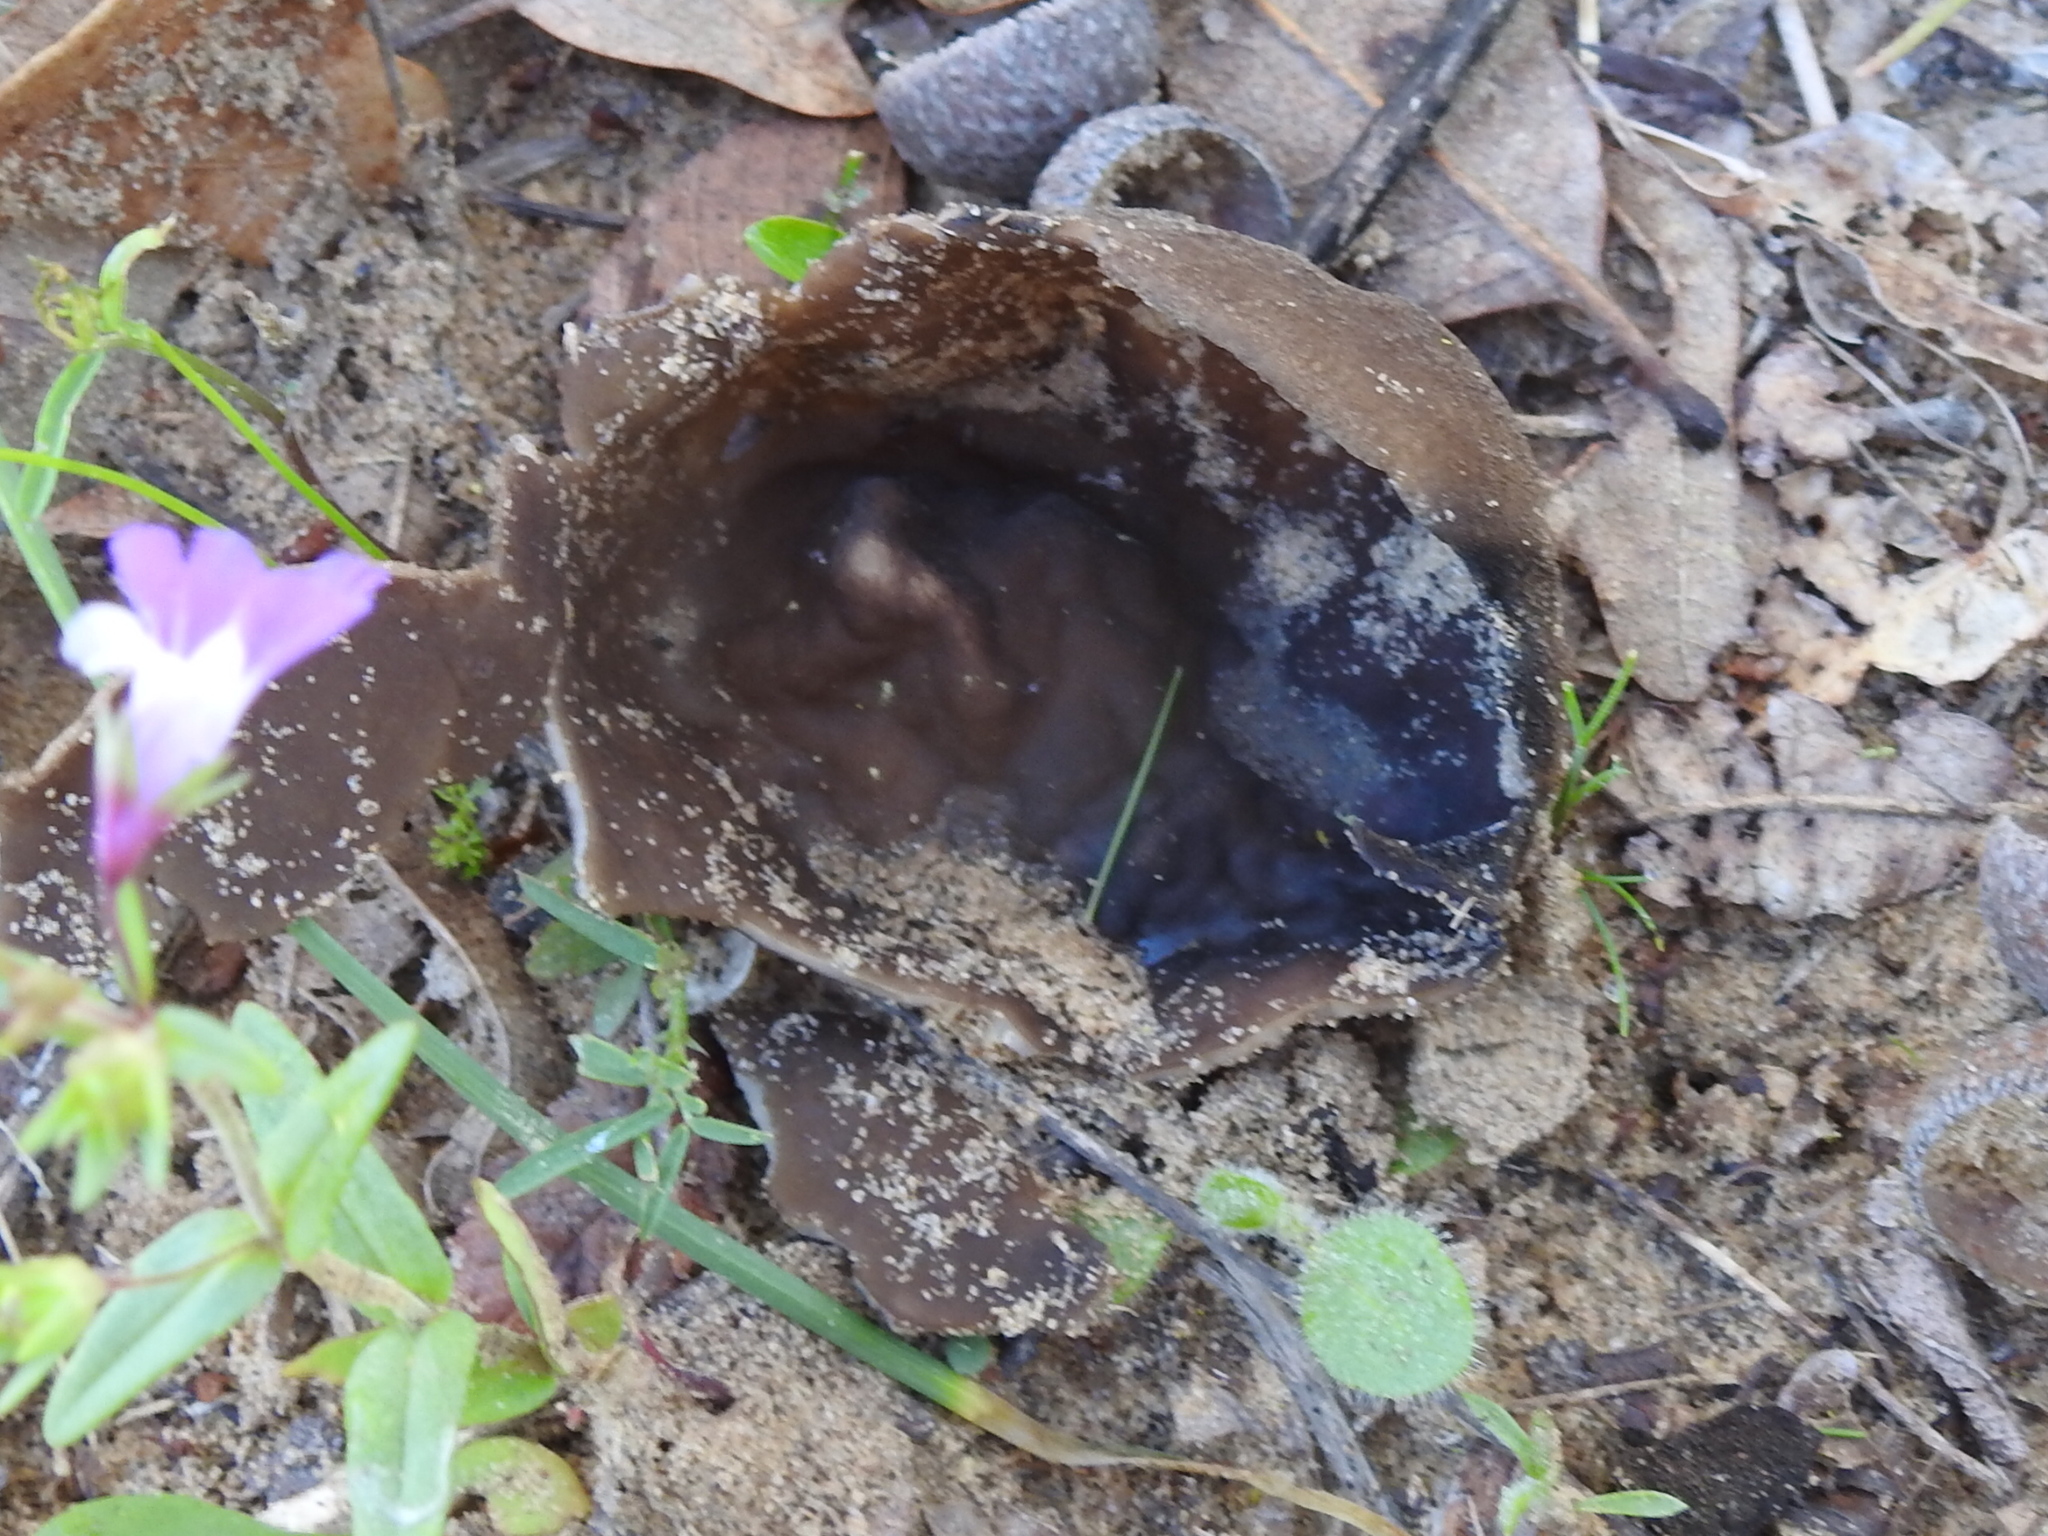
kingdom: Fungi
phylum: Ascomycota
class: Pezizomycetes
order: Pezizales
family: Helvellaceae
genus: Helvella
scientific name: Helvella acetabulum
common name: Vinegar cup
